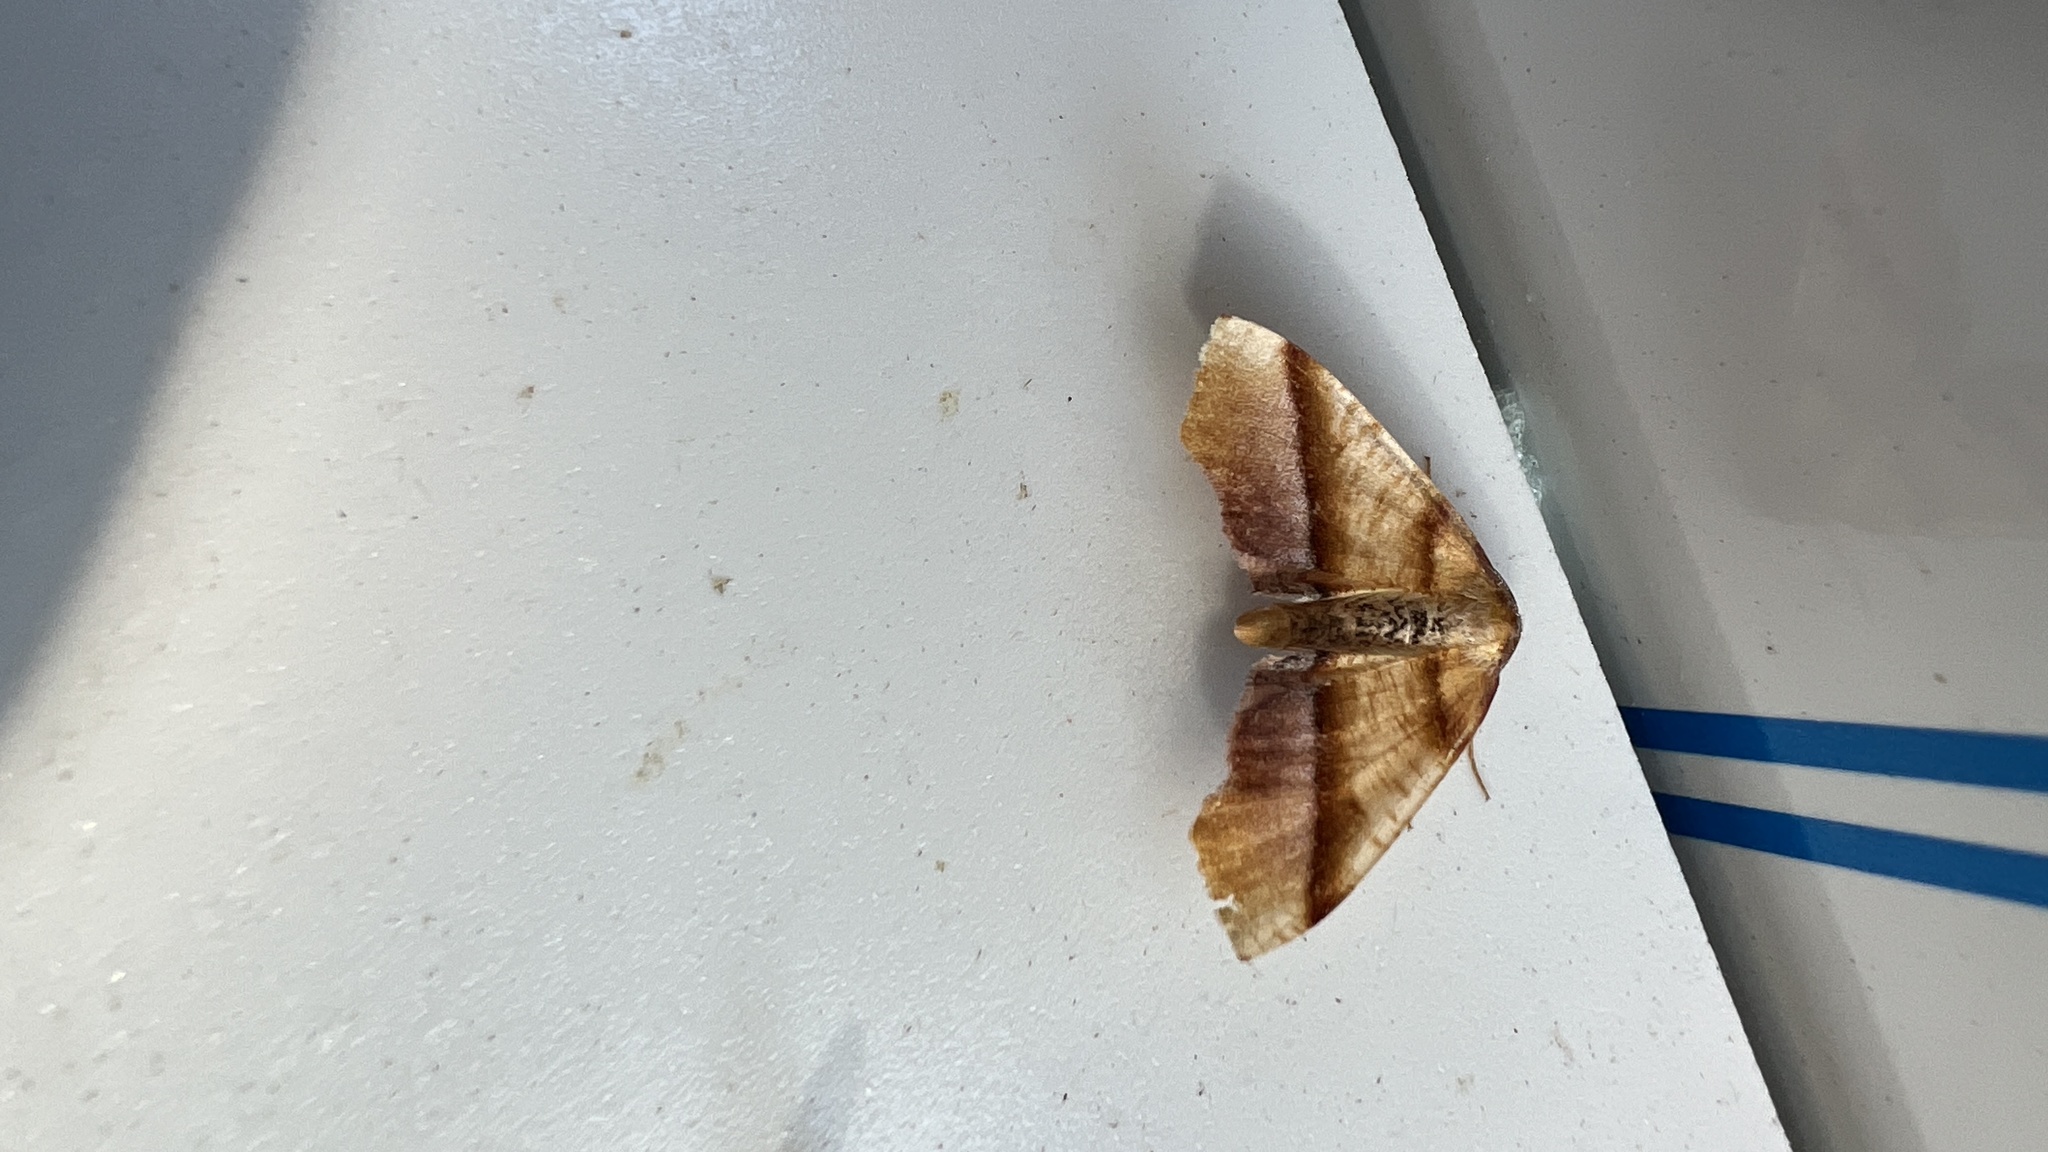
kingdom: Animalia
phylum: Arthropoda
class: Insecta
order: Lepidoptera
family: Geometridae
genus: Plagodis
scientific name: Plagodis phlogosaria
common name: Straight-lined plagodis
